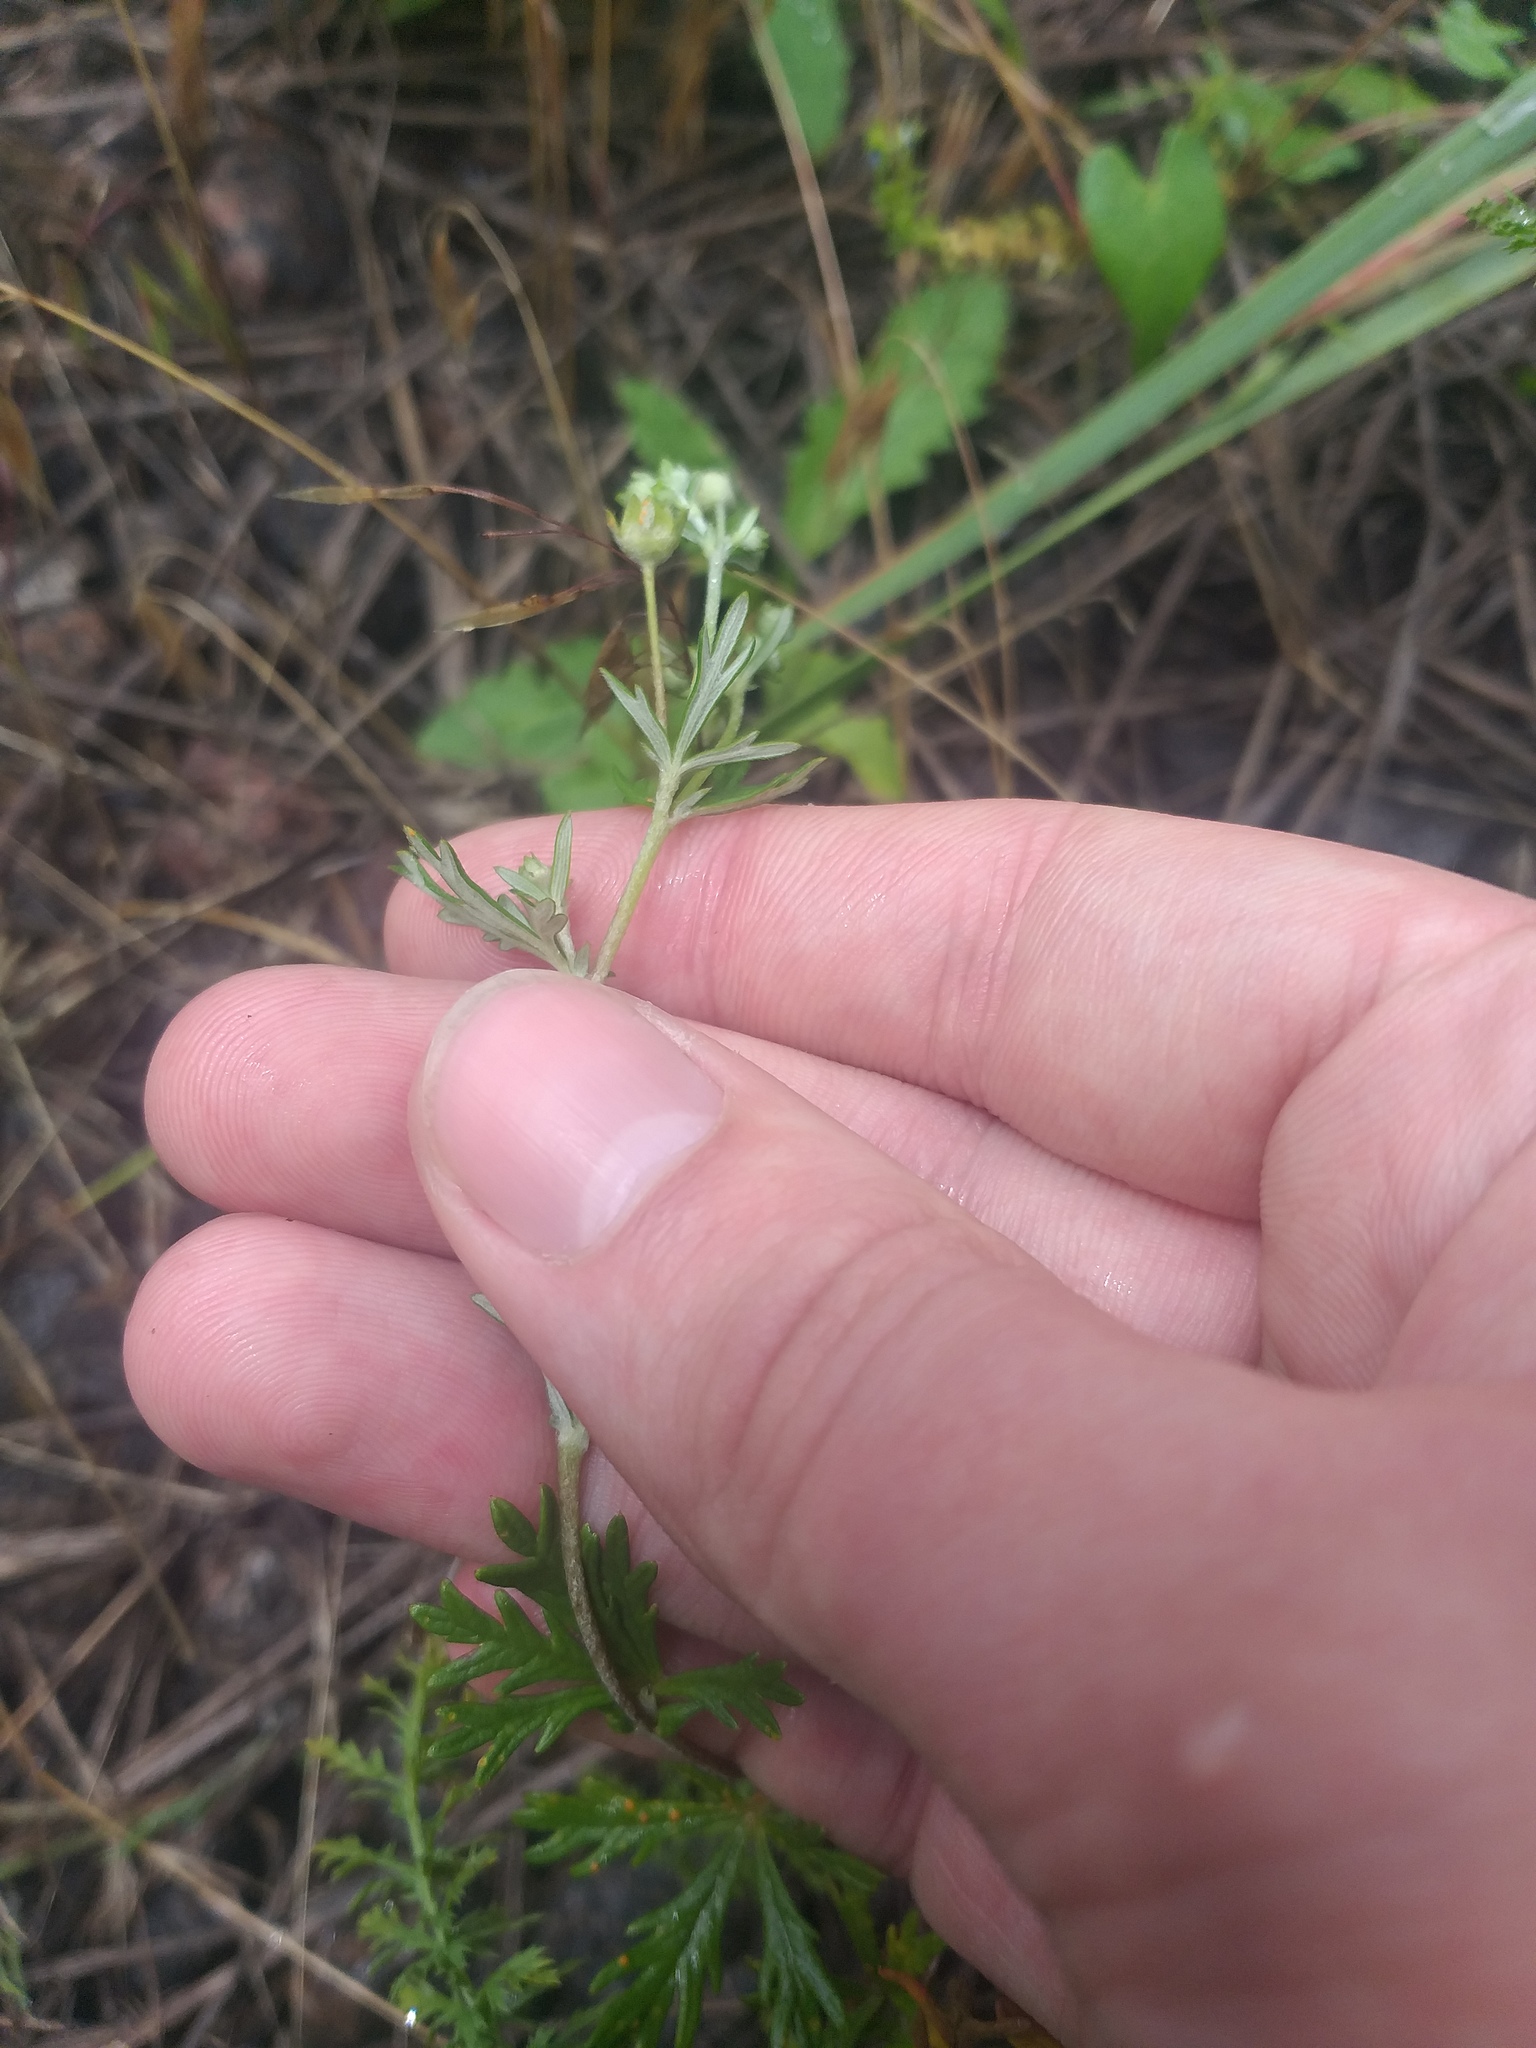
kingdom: Plantae
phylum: Tracheophyta
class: Magnoliopsida
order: Rosales
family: Rosaceae
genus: Potentilla
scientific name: Potentilla argentea
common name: Hoary cinquefoil
